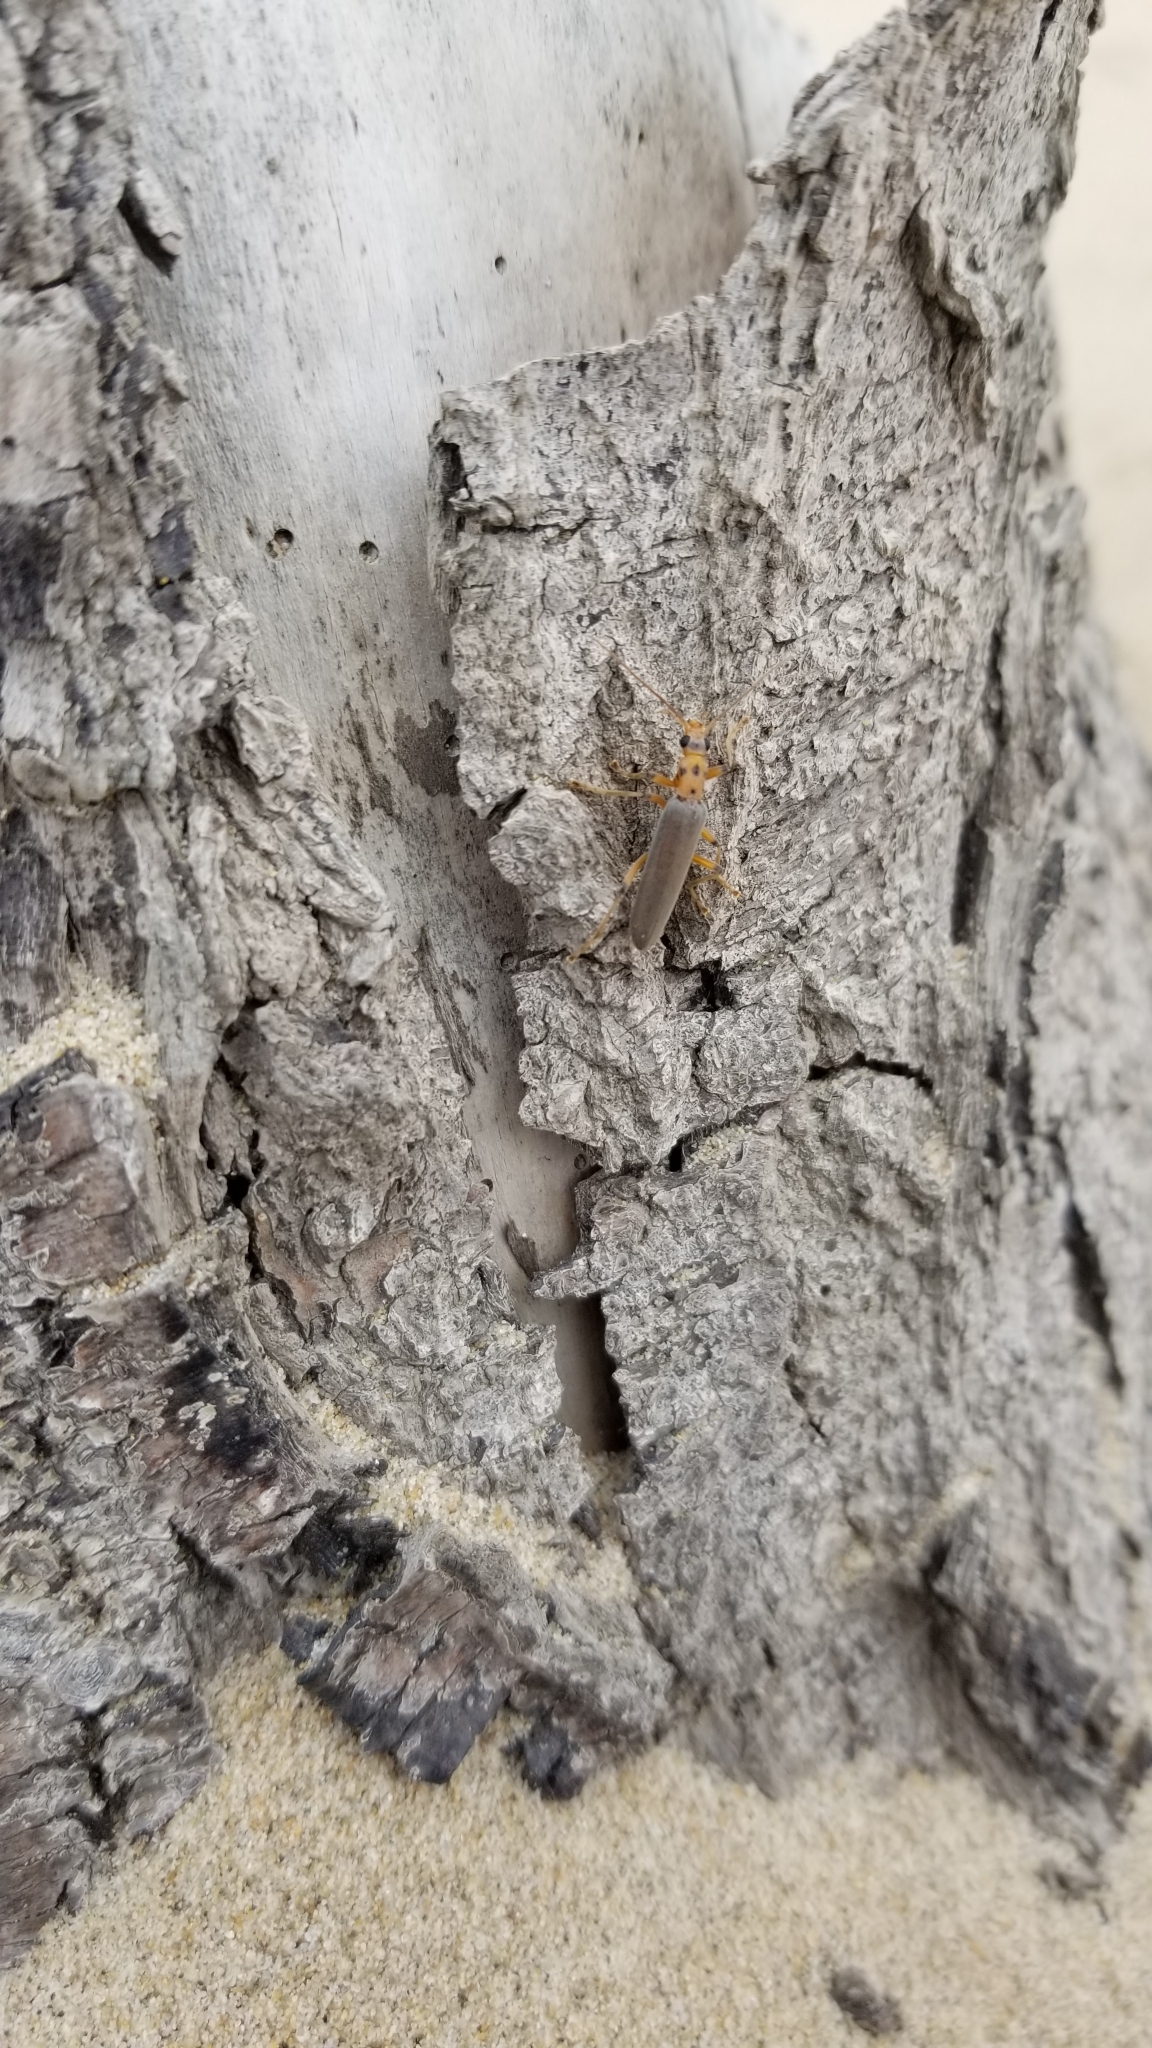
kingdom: Animalia
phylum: Arthropoda
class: Insecta
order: Coleoptera
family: Oedemeridae
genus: Copidita
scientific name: Copidita quadrimaculata
